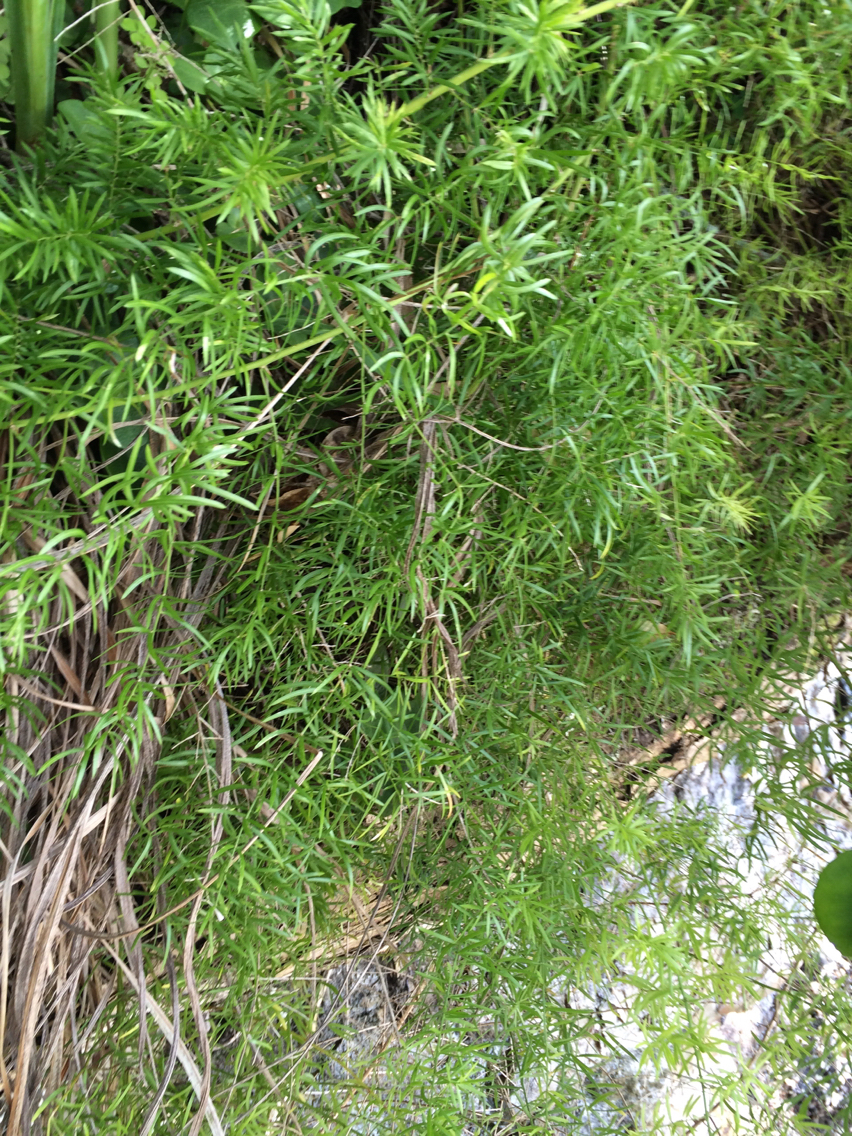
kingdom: Plantae
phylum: Tracheophyta
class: Liliopsida
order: Asparagales
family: Asparagaceae
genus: Asparagus
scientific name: Asparagus aethiopicus
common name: Sprenger's asparagus fern
